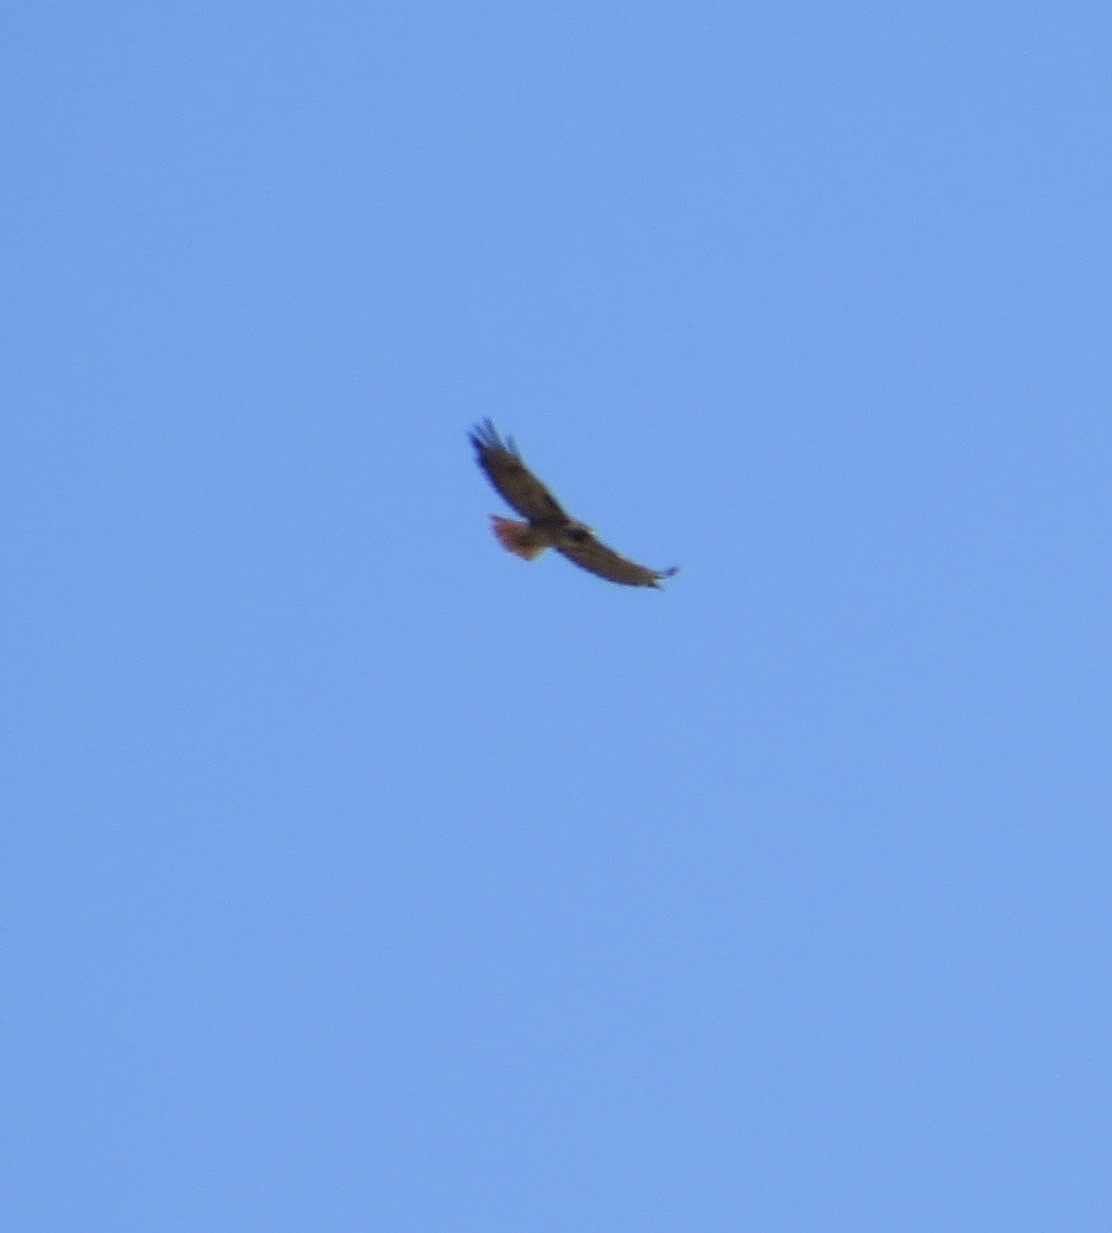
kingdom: Animalia
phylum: Chordata
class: Aves
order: Accipitriformes
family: Accipitridae
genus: Buteo
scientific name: Buteo jamaicensis
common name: Red-tailed hawk
